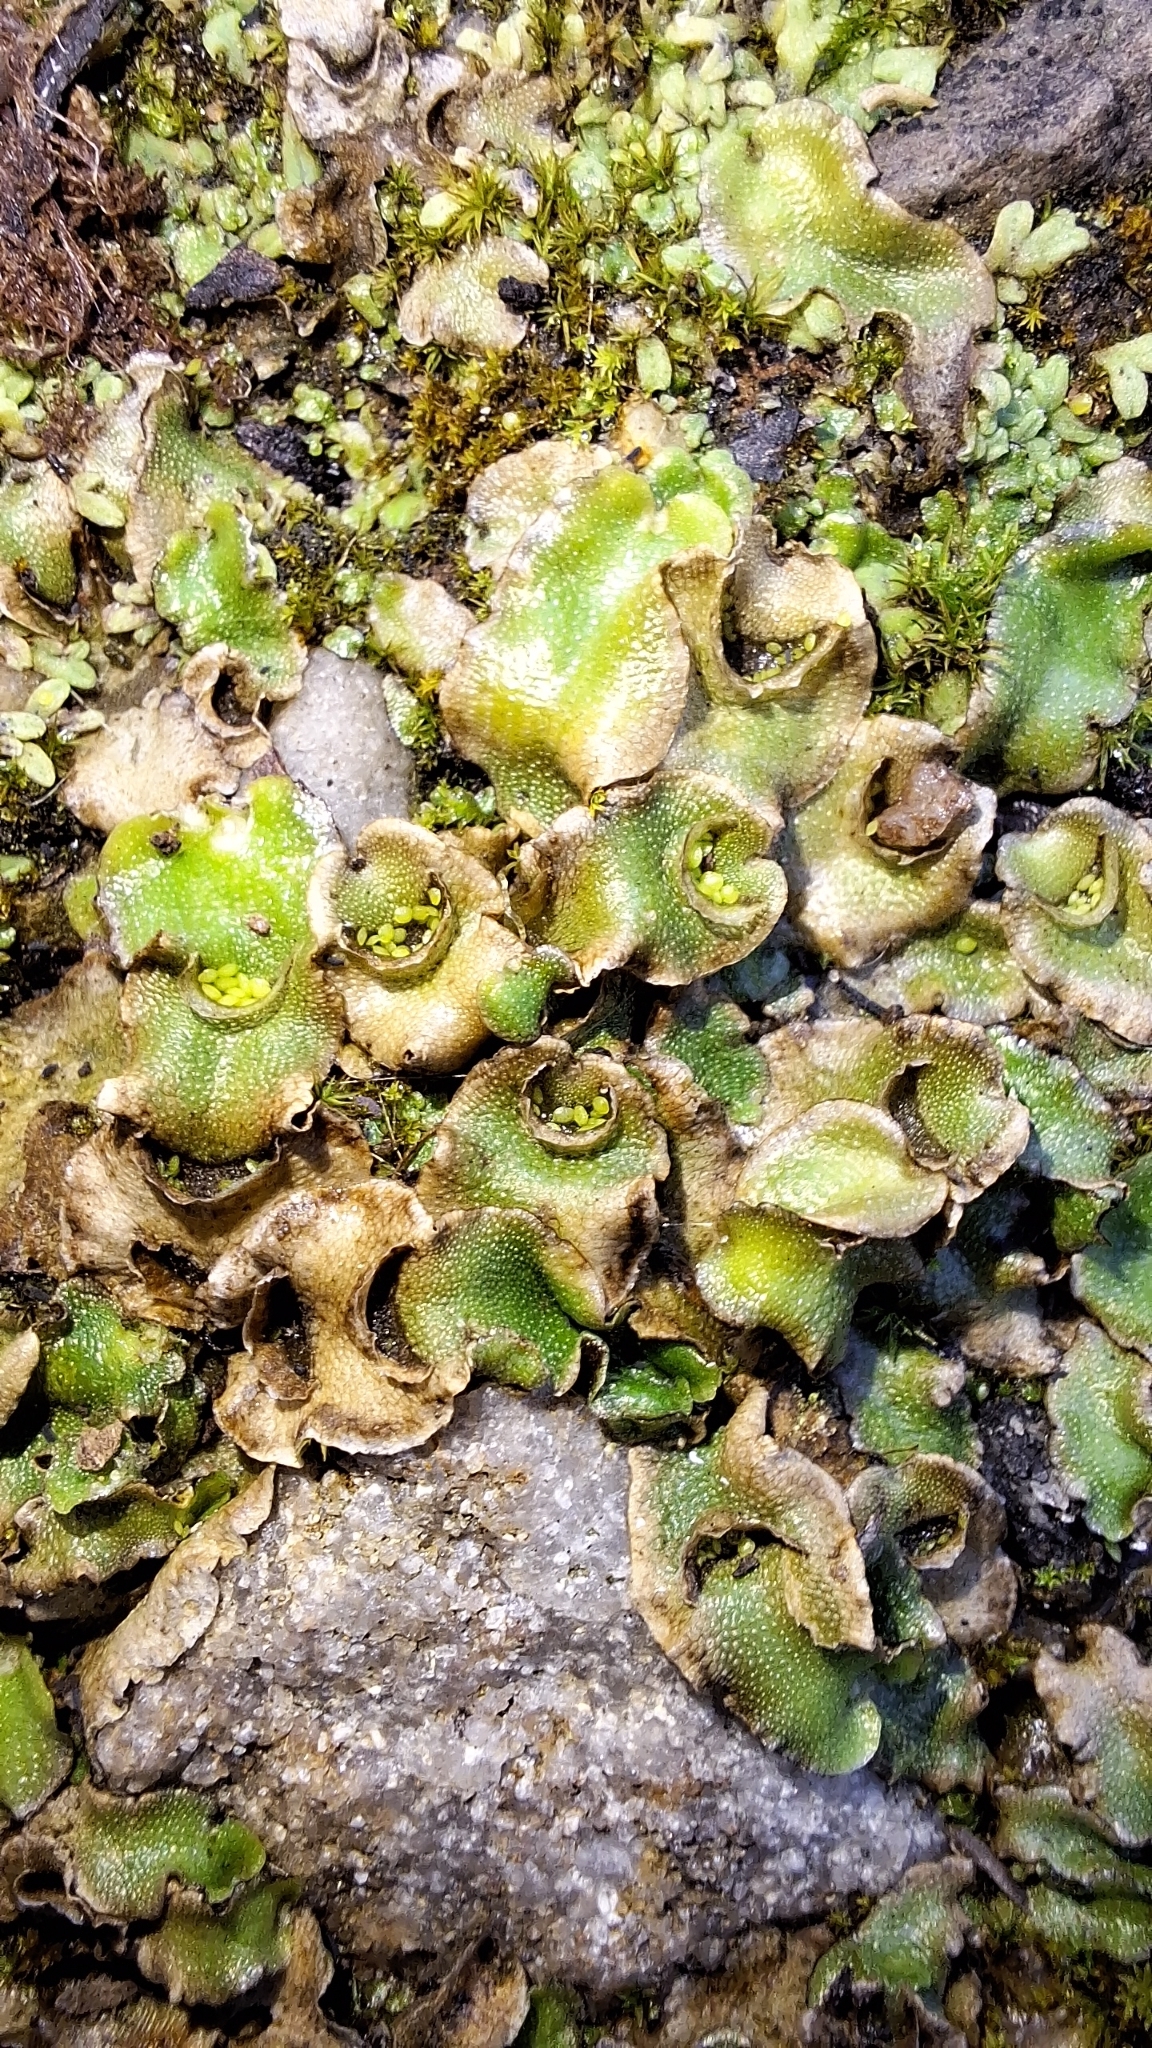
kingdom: Plantae
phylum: Marchantiophyta
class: Marchantiopsida
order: Lunulariales
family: Lunulariaceae
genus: Lunularia
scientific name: Lunularia cruciata
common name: Crescent-cup liverwort
